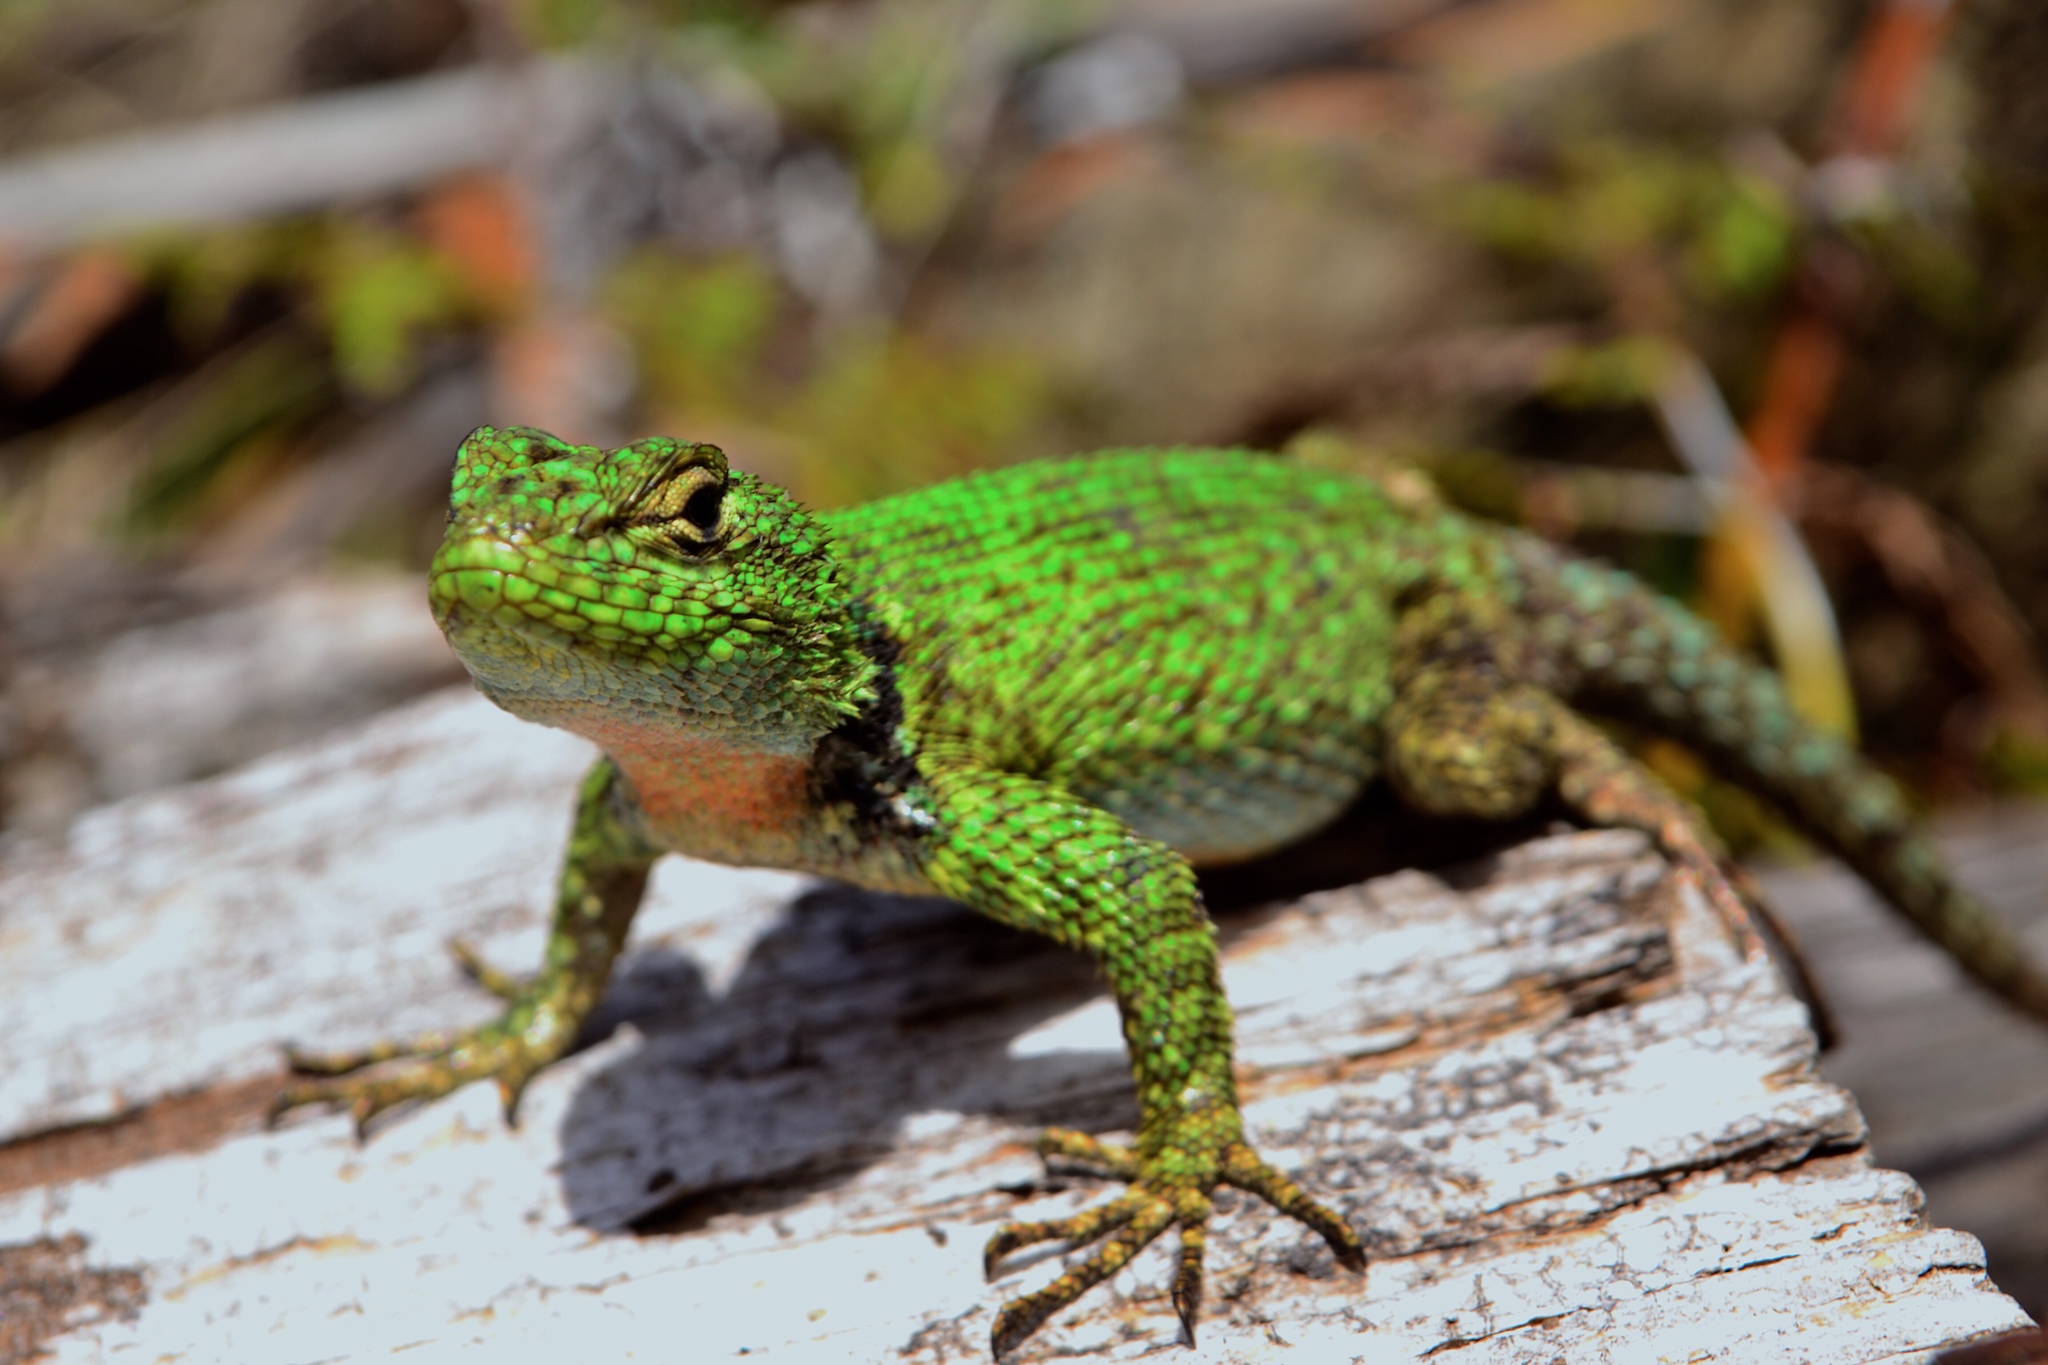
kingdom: Animalia
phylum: Chordata
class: Squamata
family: Phrynosomatidae
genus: Sceloporus
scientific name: Sceloporus taeniocnemis
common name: Guatemalan emerald spiny lizard
